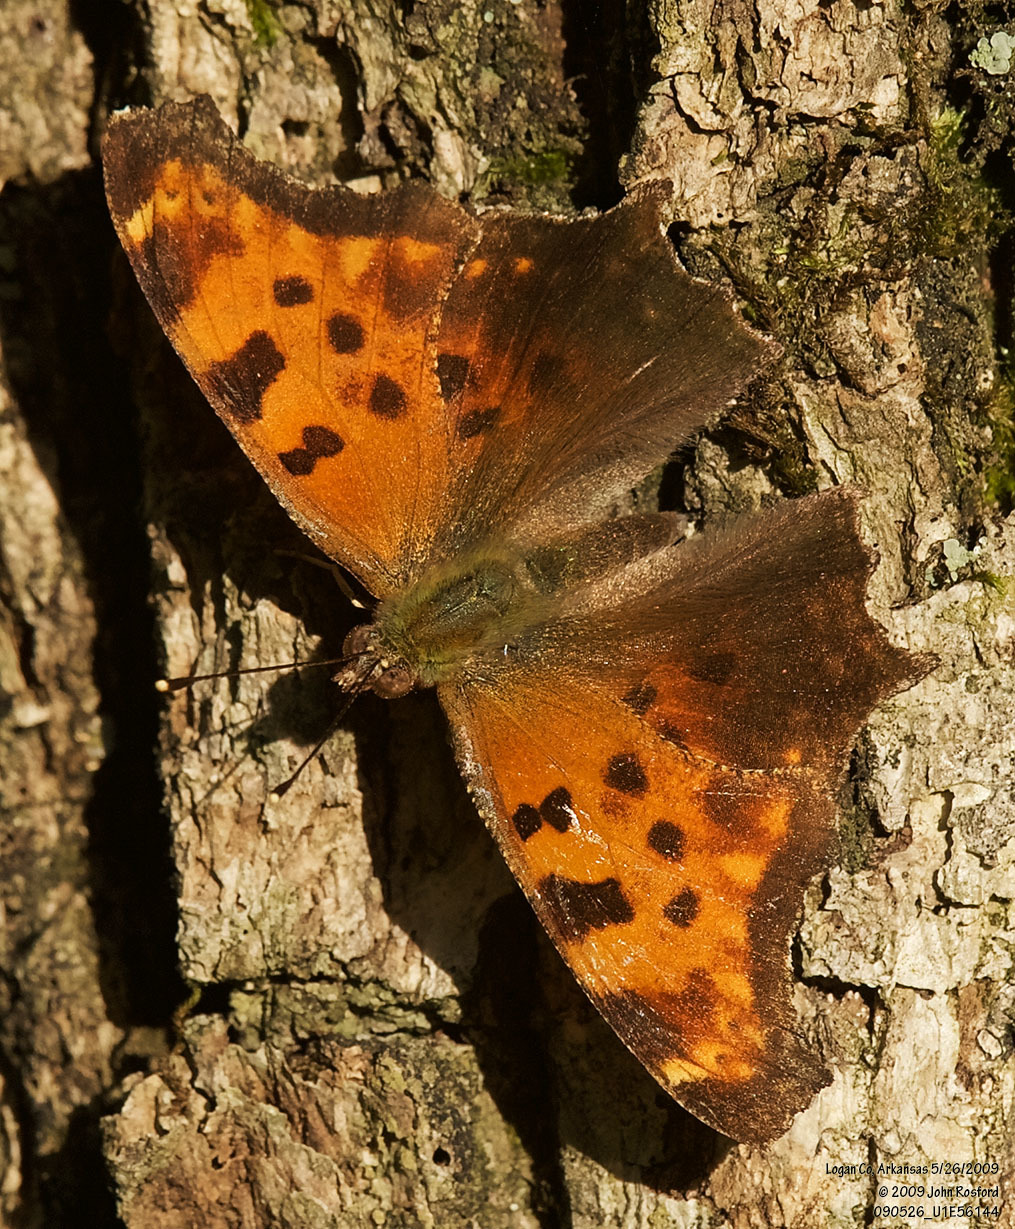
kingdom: Animalia
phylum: Arthropoda
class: Insecta
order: Lepidoptera
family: Nymphalidae
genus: Polygonia
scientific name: Polygonia comma
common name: Eastern comma
